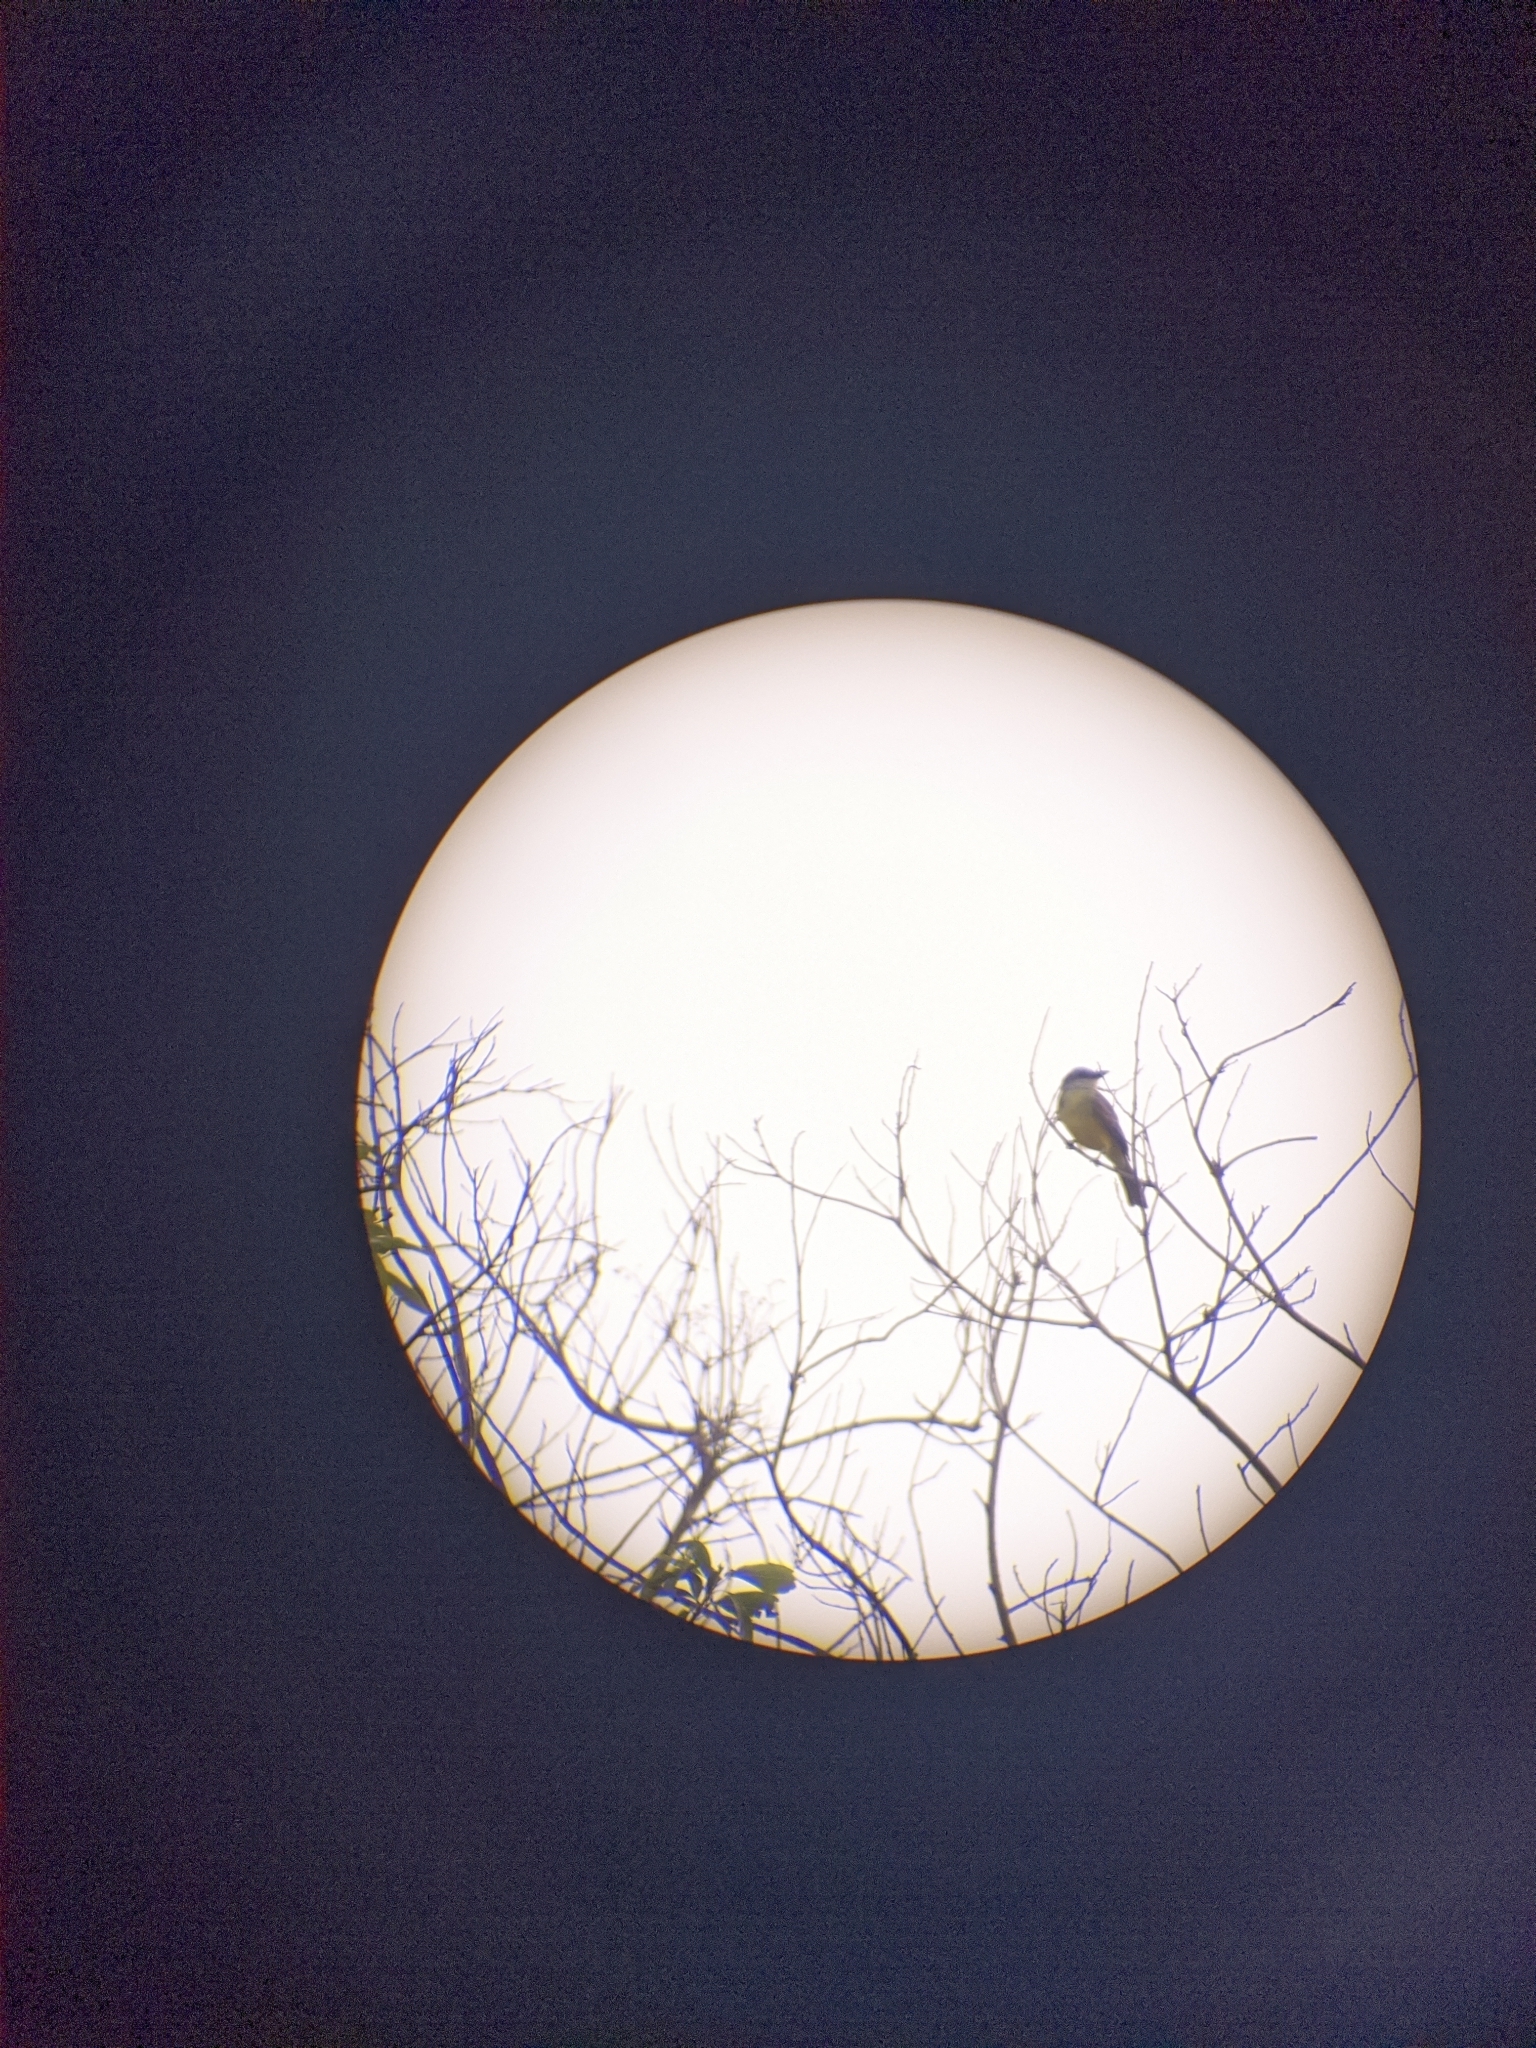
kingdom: Animalia
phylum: Chordata
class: Aves
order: Passeriformes
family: Tyrannidae
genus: Tyrannus
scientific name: Tyrannus melancholicus
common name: Tropical kingbird
